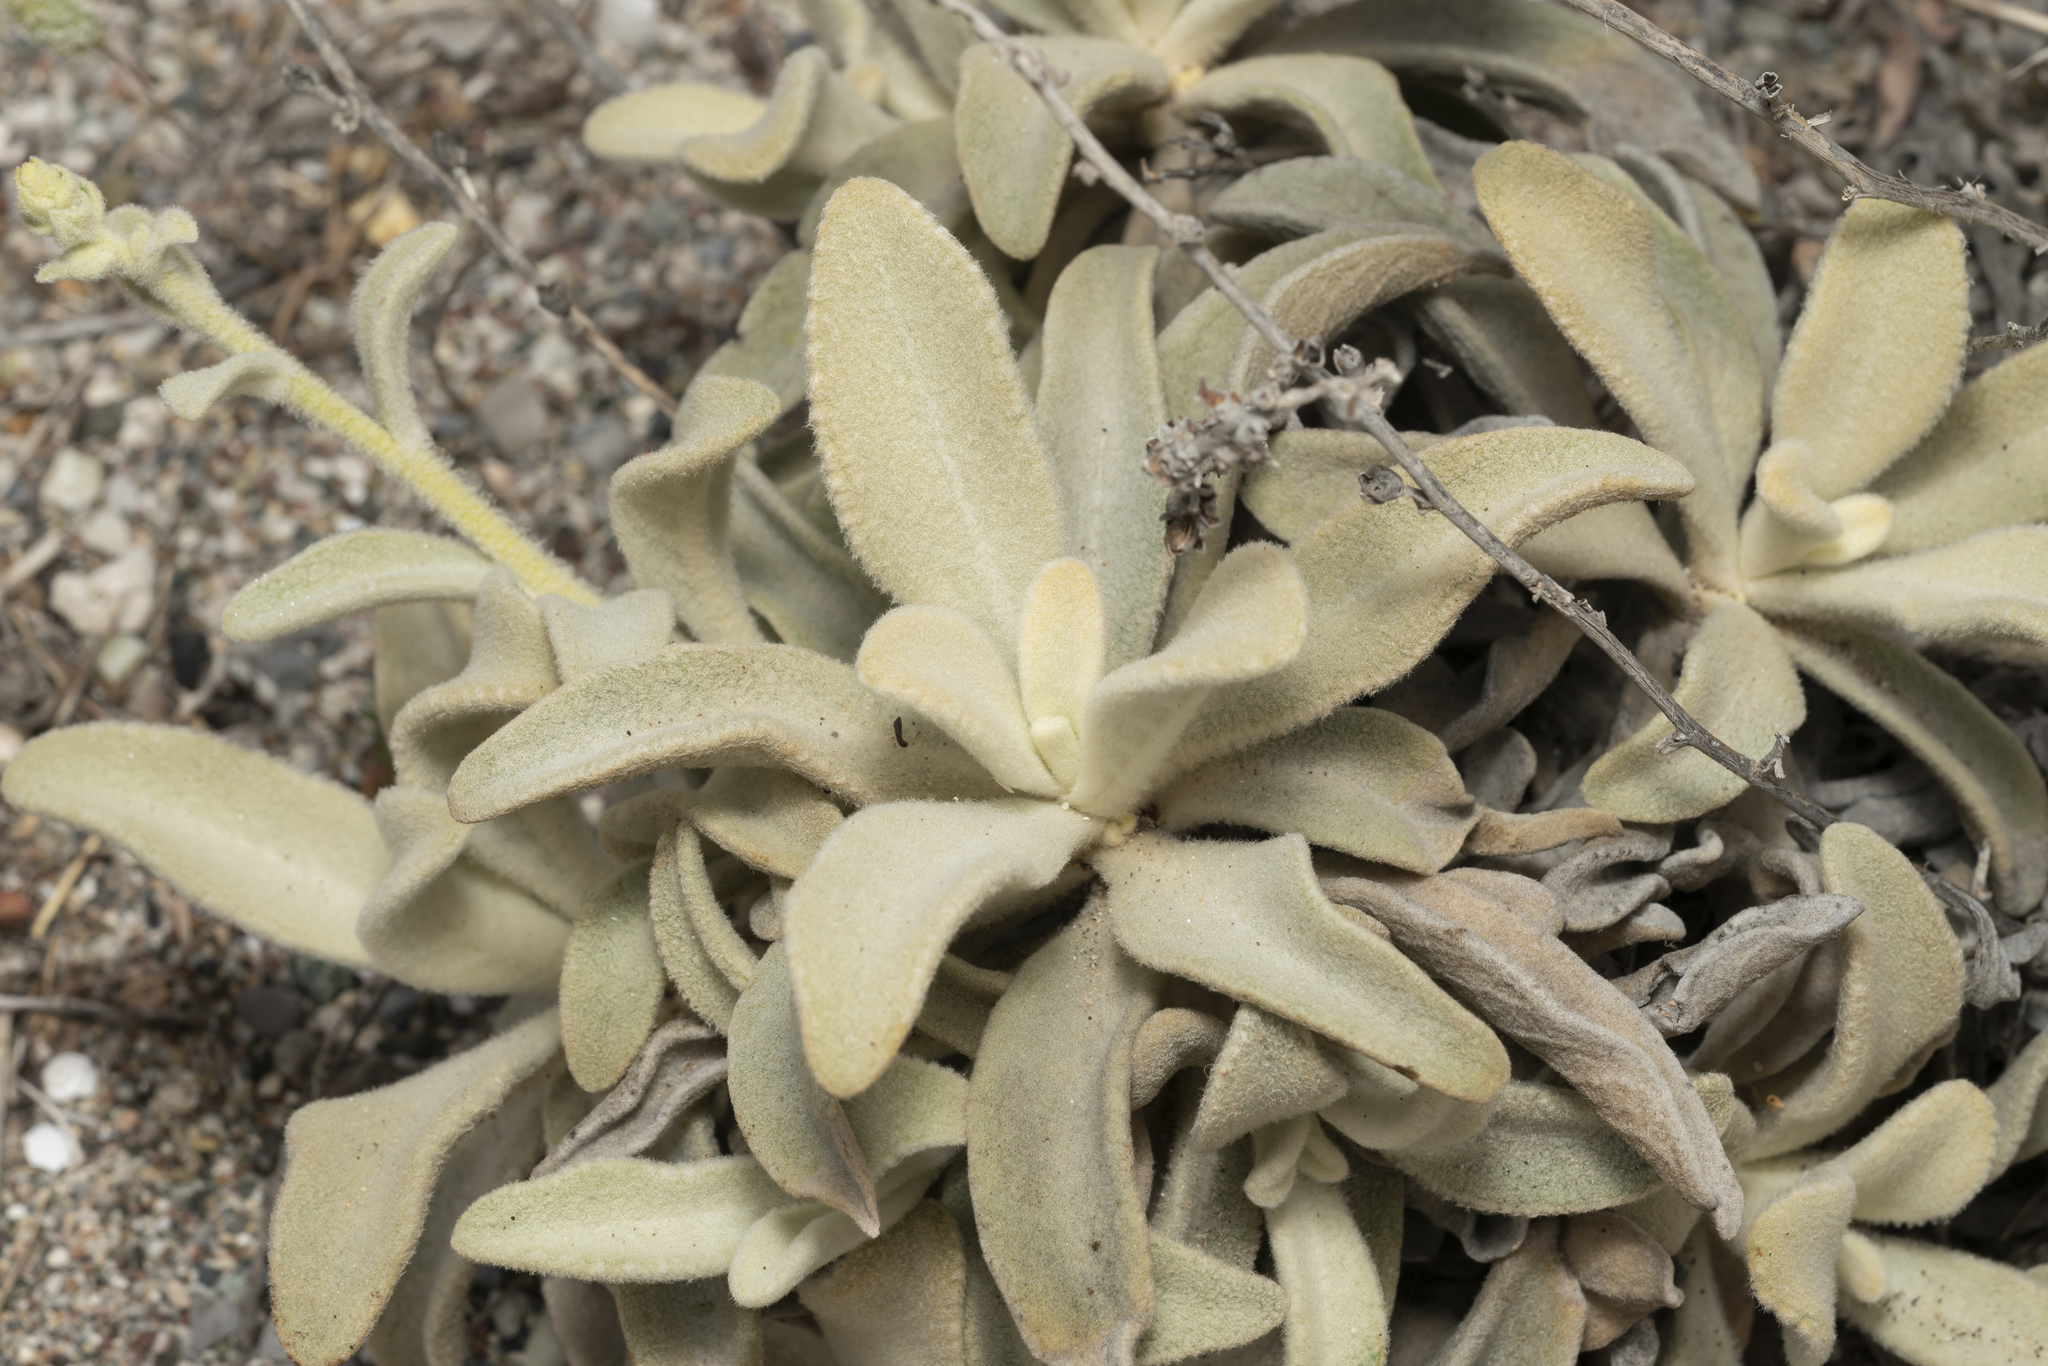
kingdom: Plantae
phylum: Tracheophyta
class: Magnoliopsida
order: Lamiales
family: Scrophulariaceae
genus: Verbascum
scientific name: Verbascum syriacum
